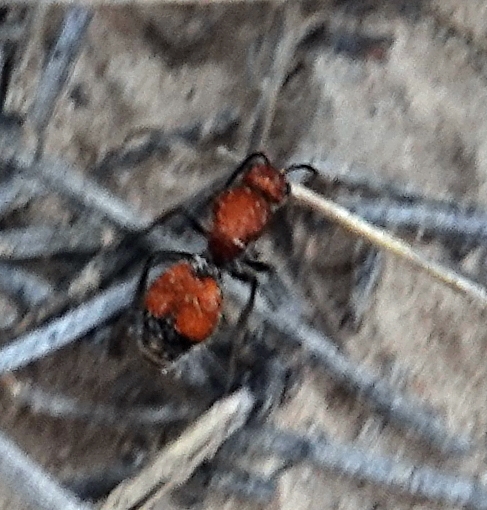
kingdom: Animalia
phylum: Arthropoda
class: Insecta
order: Hymenoptera
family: Mutillidae
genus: Dasymutilla
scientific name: Dasymutilla
